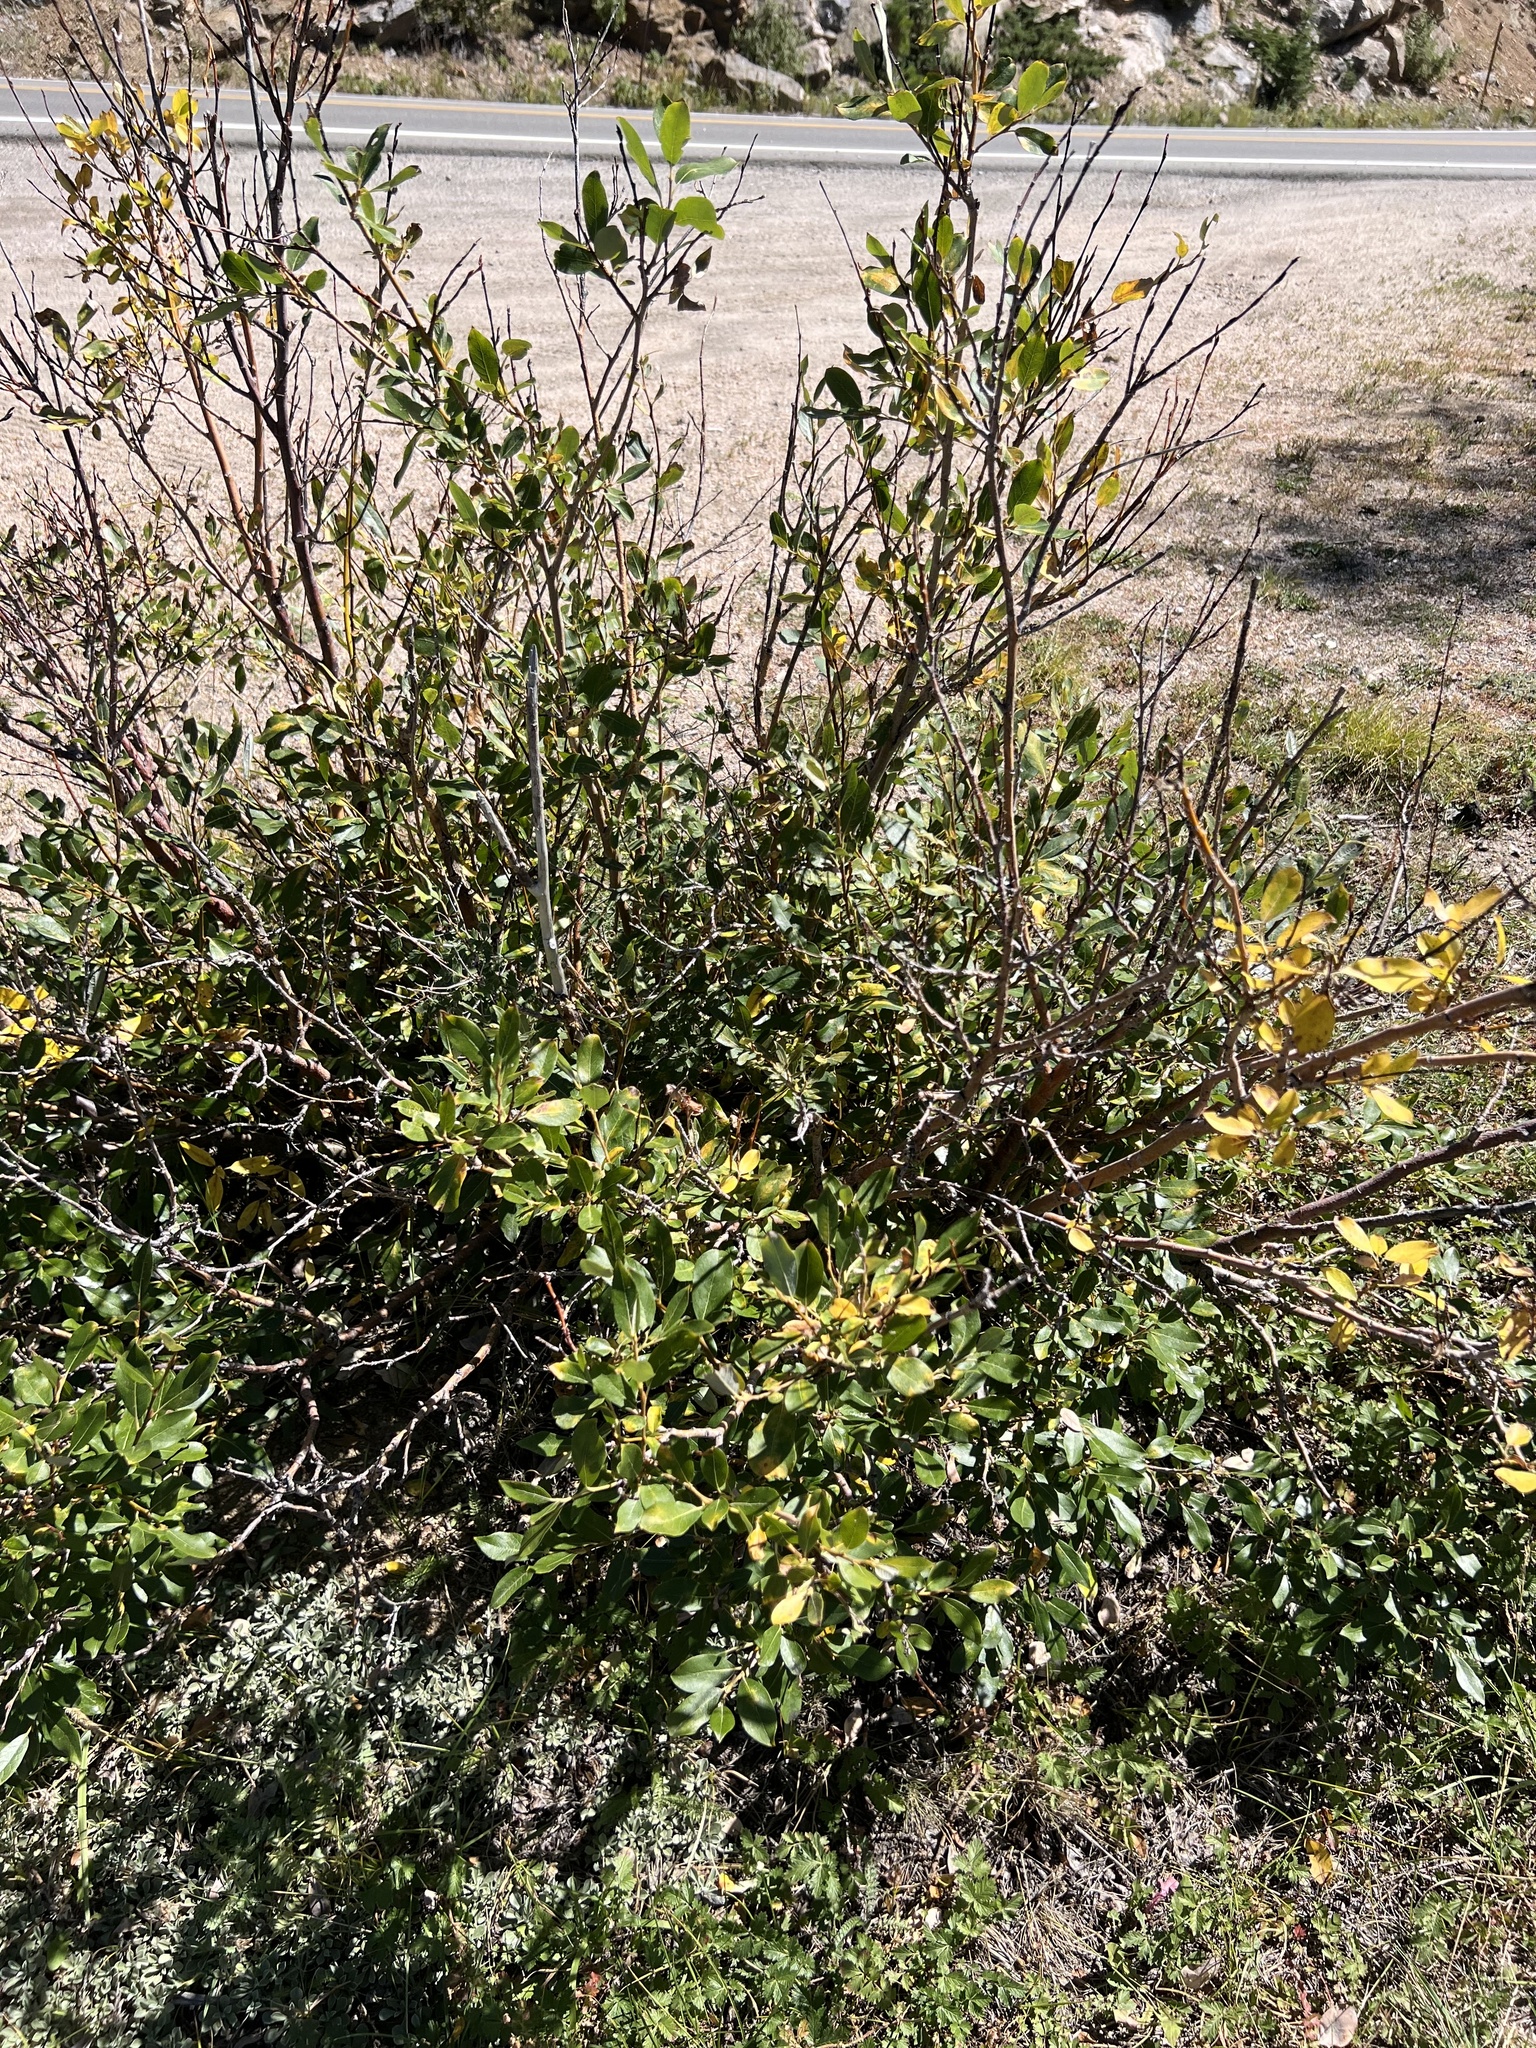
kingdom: Plantae
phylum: Tracheophyta
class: Magnoliopsida
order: Malpighiales
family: Salicaceae
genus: Salix
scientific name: Salix scouleriana
